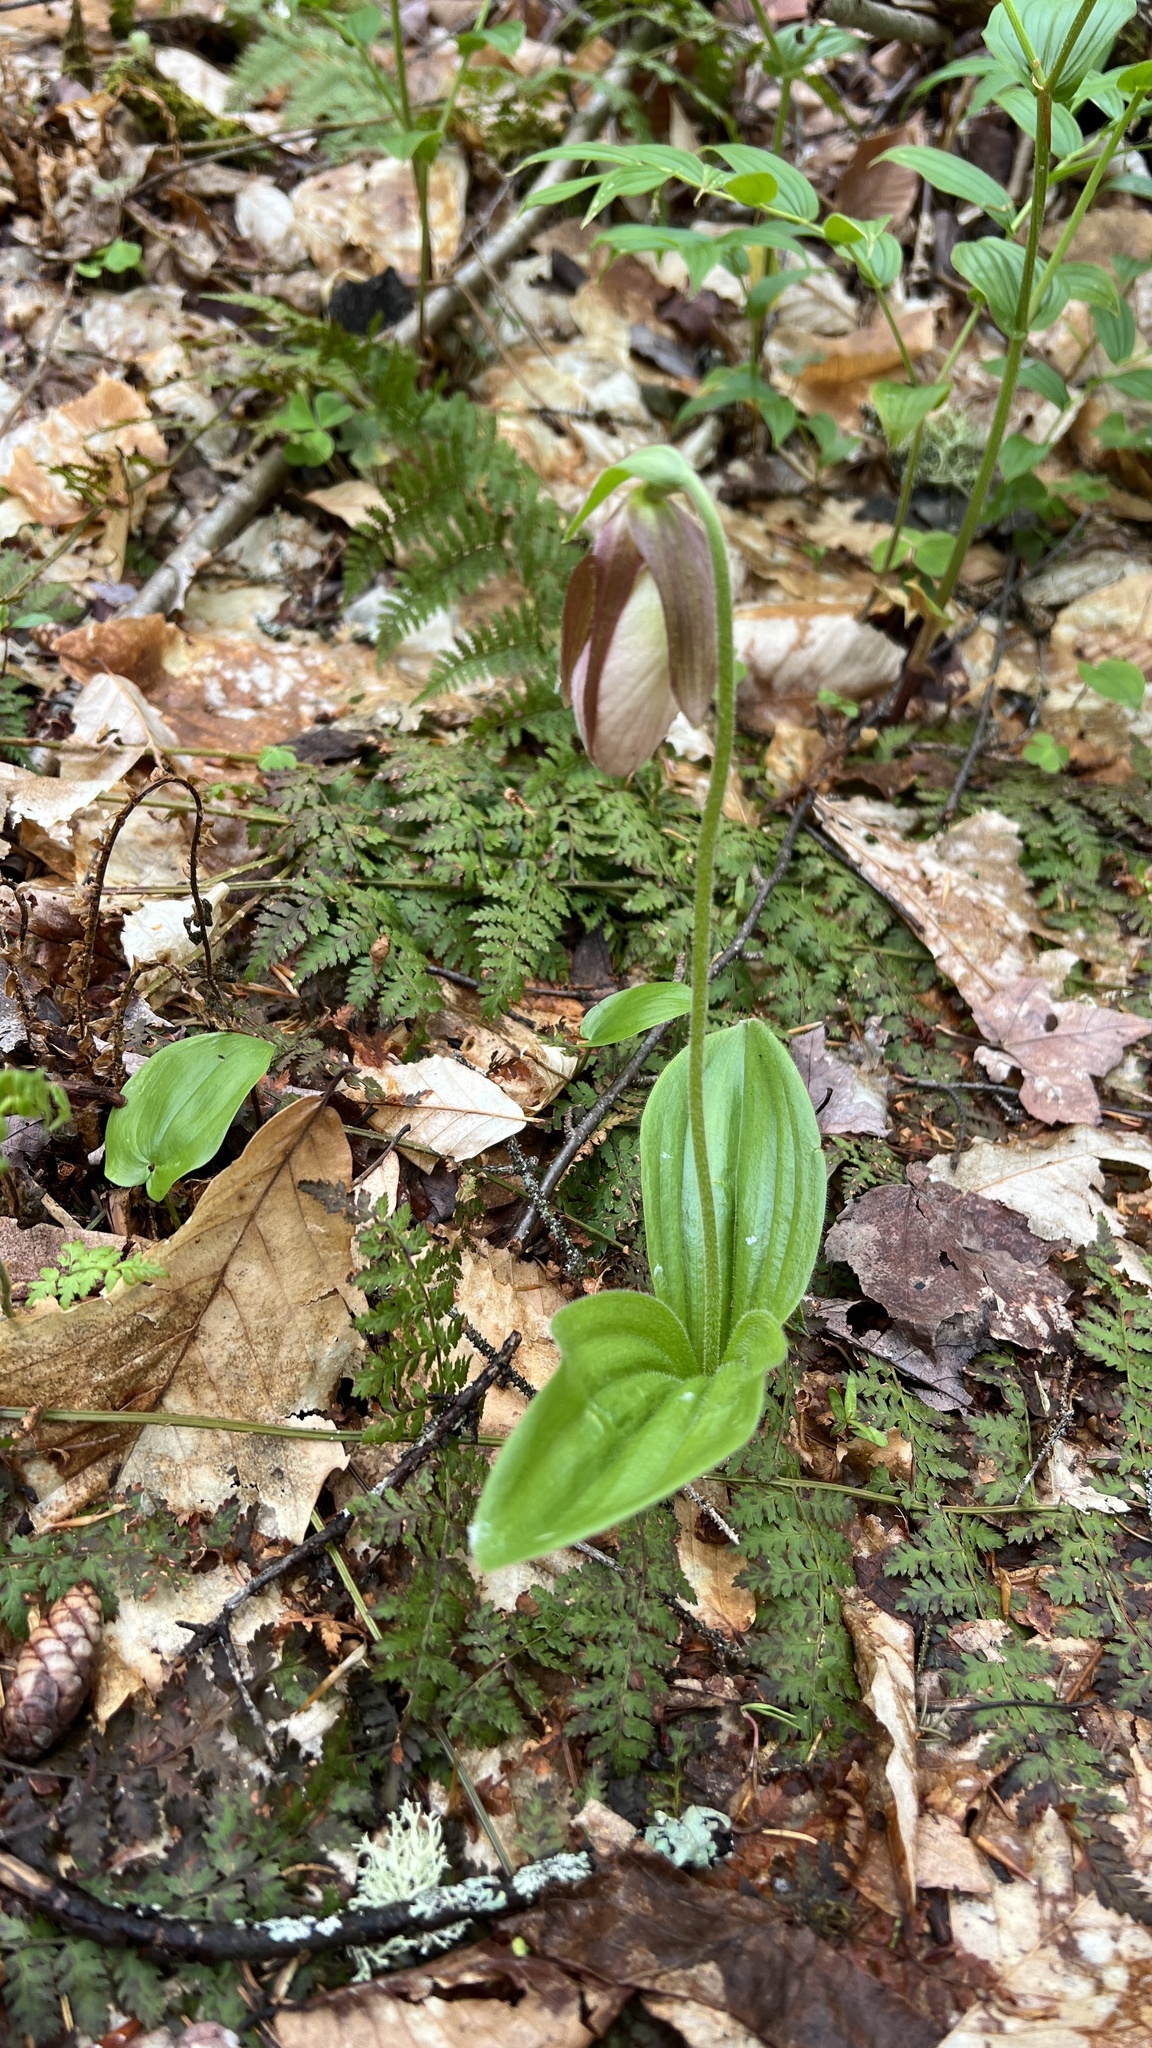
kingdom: Plantae
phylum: Tracheophyta
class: Liliopsida
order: Asparagales
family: Orchidaceae
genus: Cypripedium
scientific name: Cypripedium acaule
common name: Pink lady's-slipper
